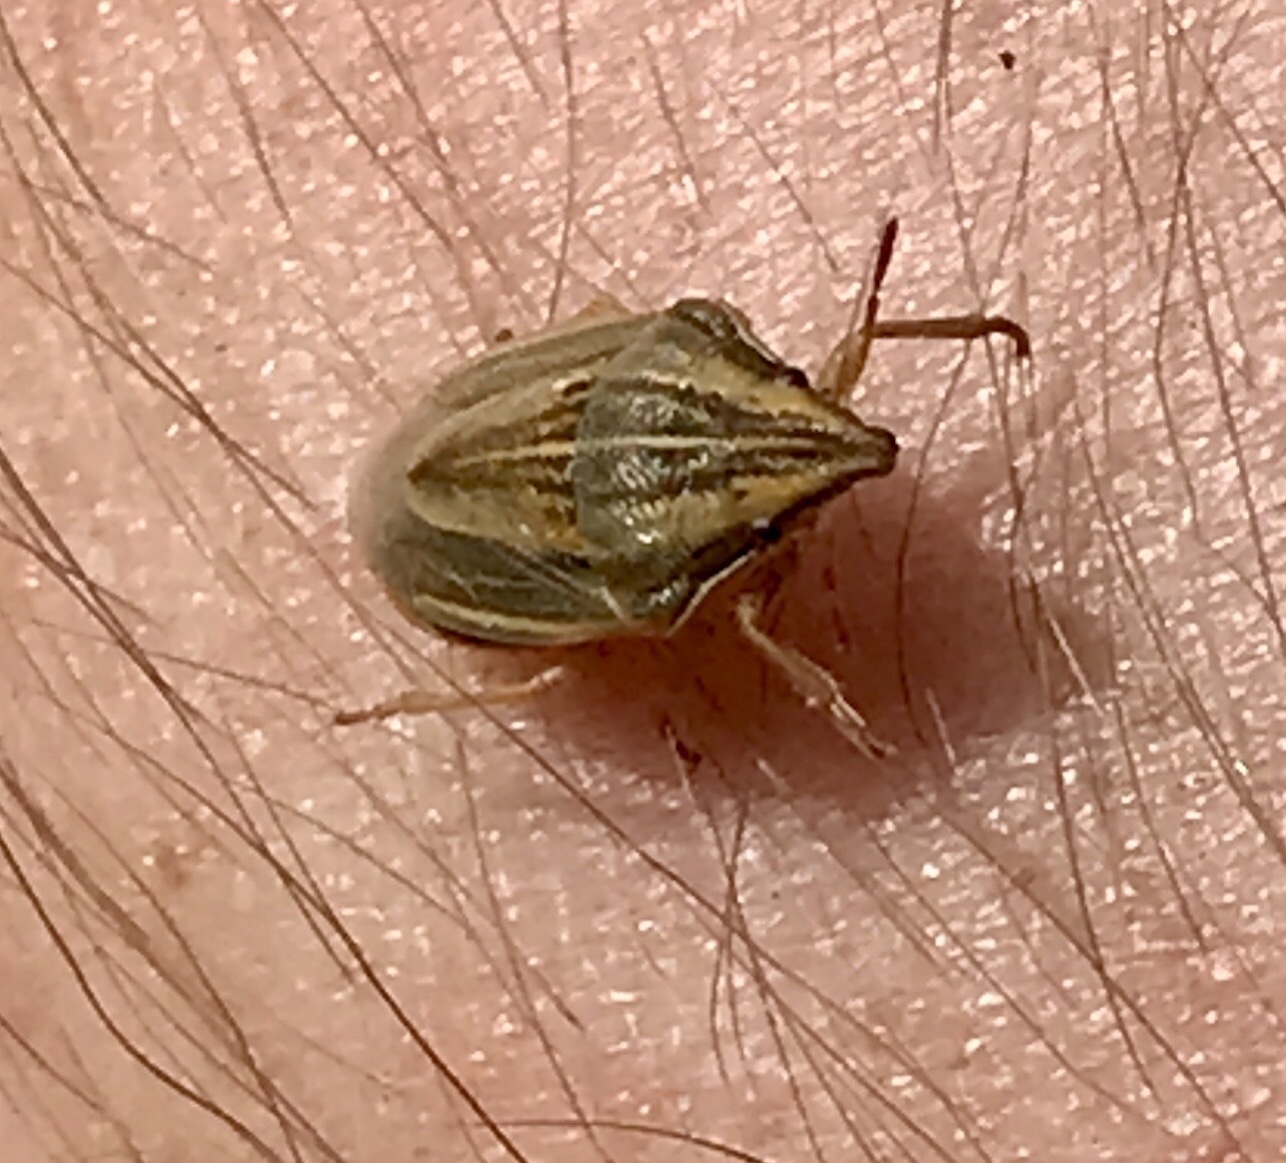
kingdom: Animalia
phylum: Arthropoda
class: Insecta
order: Hemiptera
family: Pentatomidae
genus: Aelia
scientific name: Aelia acuminata
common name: Bishop's mitre
